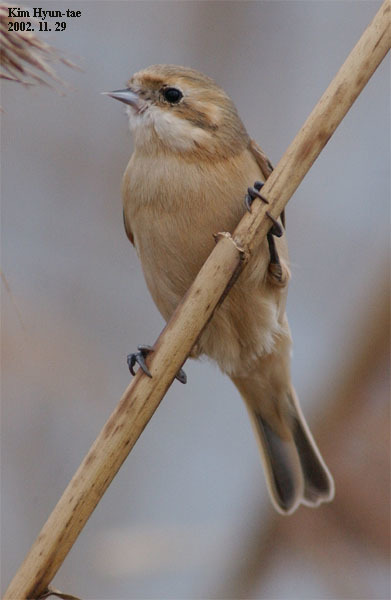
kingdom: Animalia
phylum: Chordata
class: Aves
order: Passeriformes
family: Remizidae
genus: Remiz
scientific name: Remiz consobrinus
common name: Chinese penduline tit
